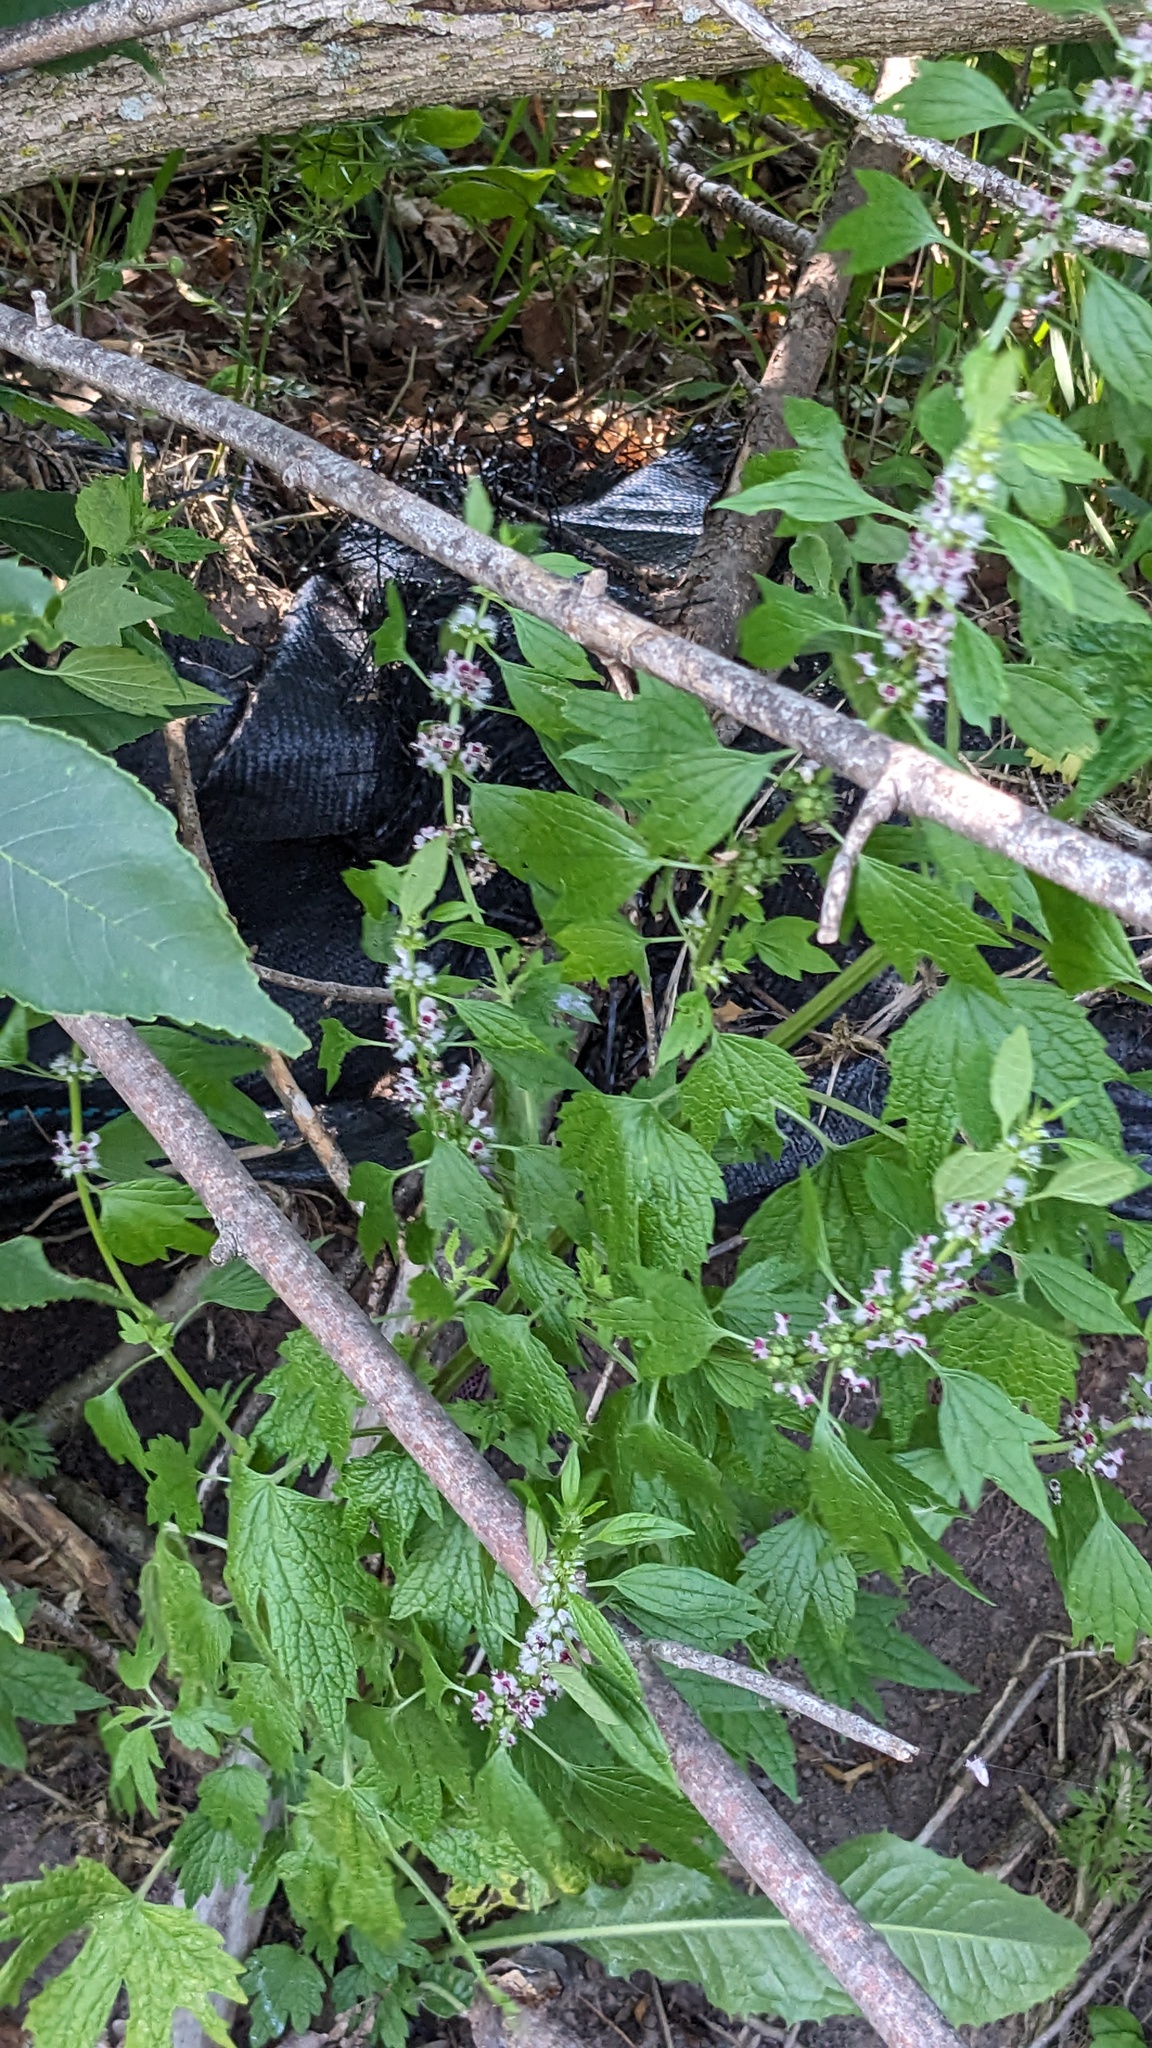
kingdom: Plantae
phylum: Tracheophyta
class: Magnoliopsida
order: Lamiales
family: Lamiaceae
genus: Leonurus
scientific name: Leonurus cardiaca
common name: Motherwort
